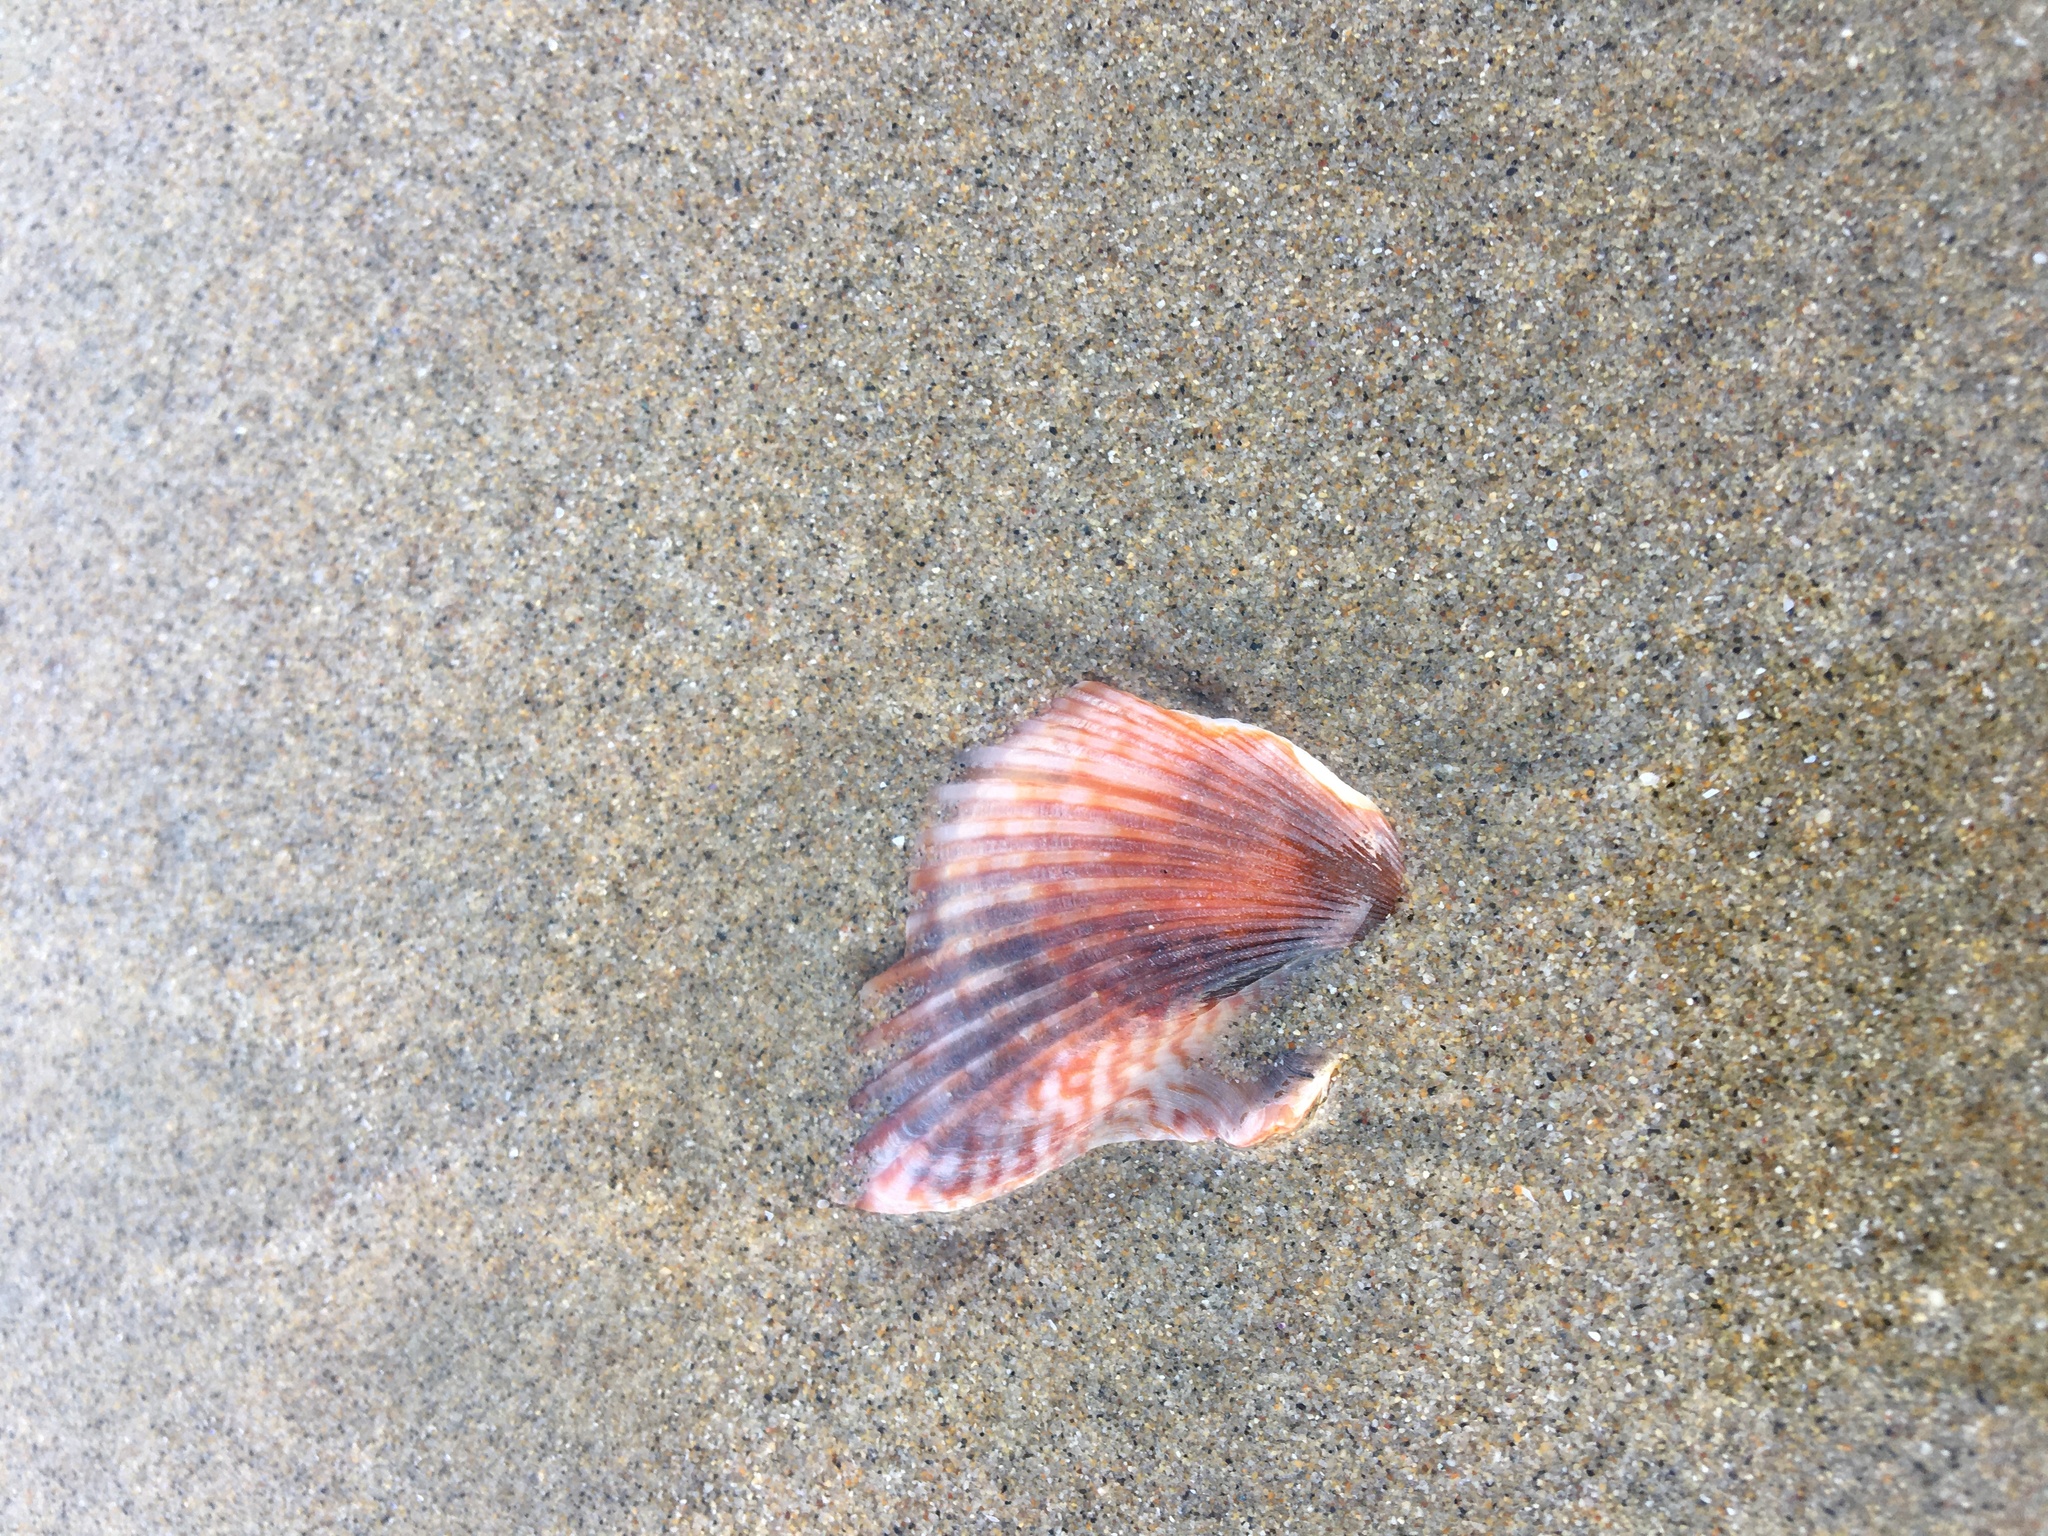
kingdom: Animalia
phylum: Mollusca
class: Bivalvia
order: Pectinida
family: Pectinidae
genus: Argopecten
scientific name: Argopecten ventricosus
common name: Catarina scallop
